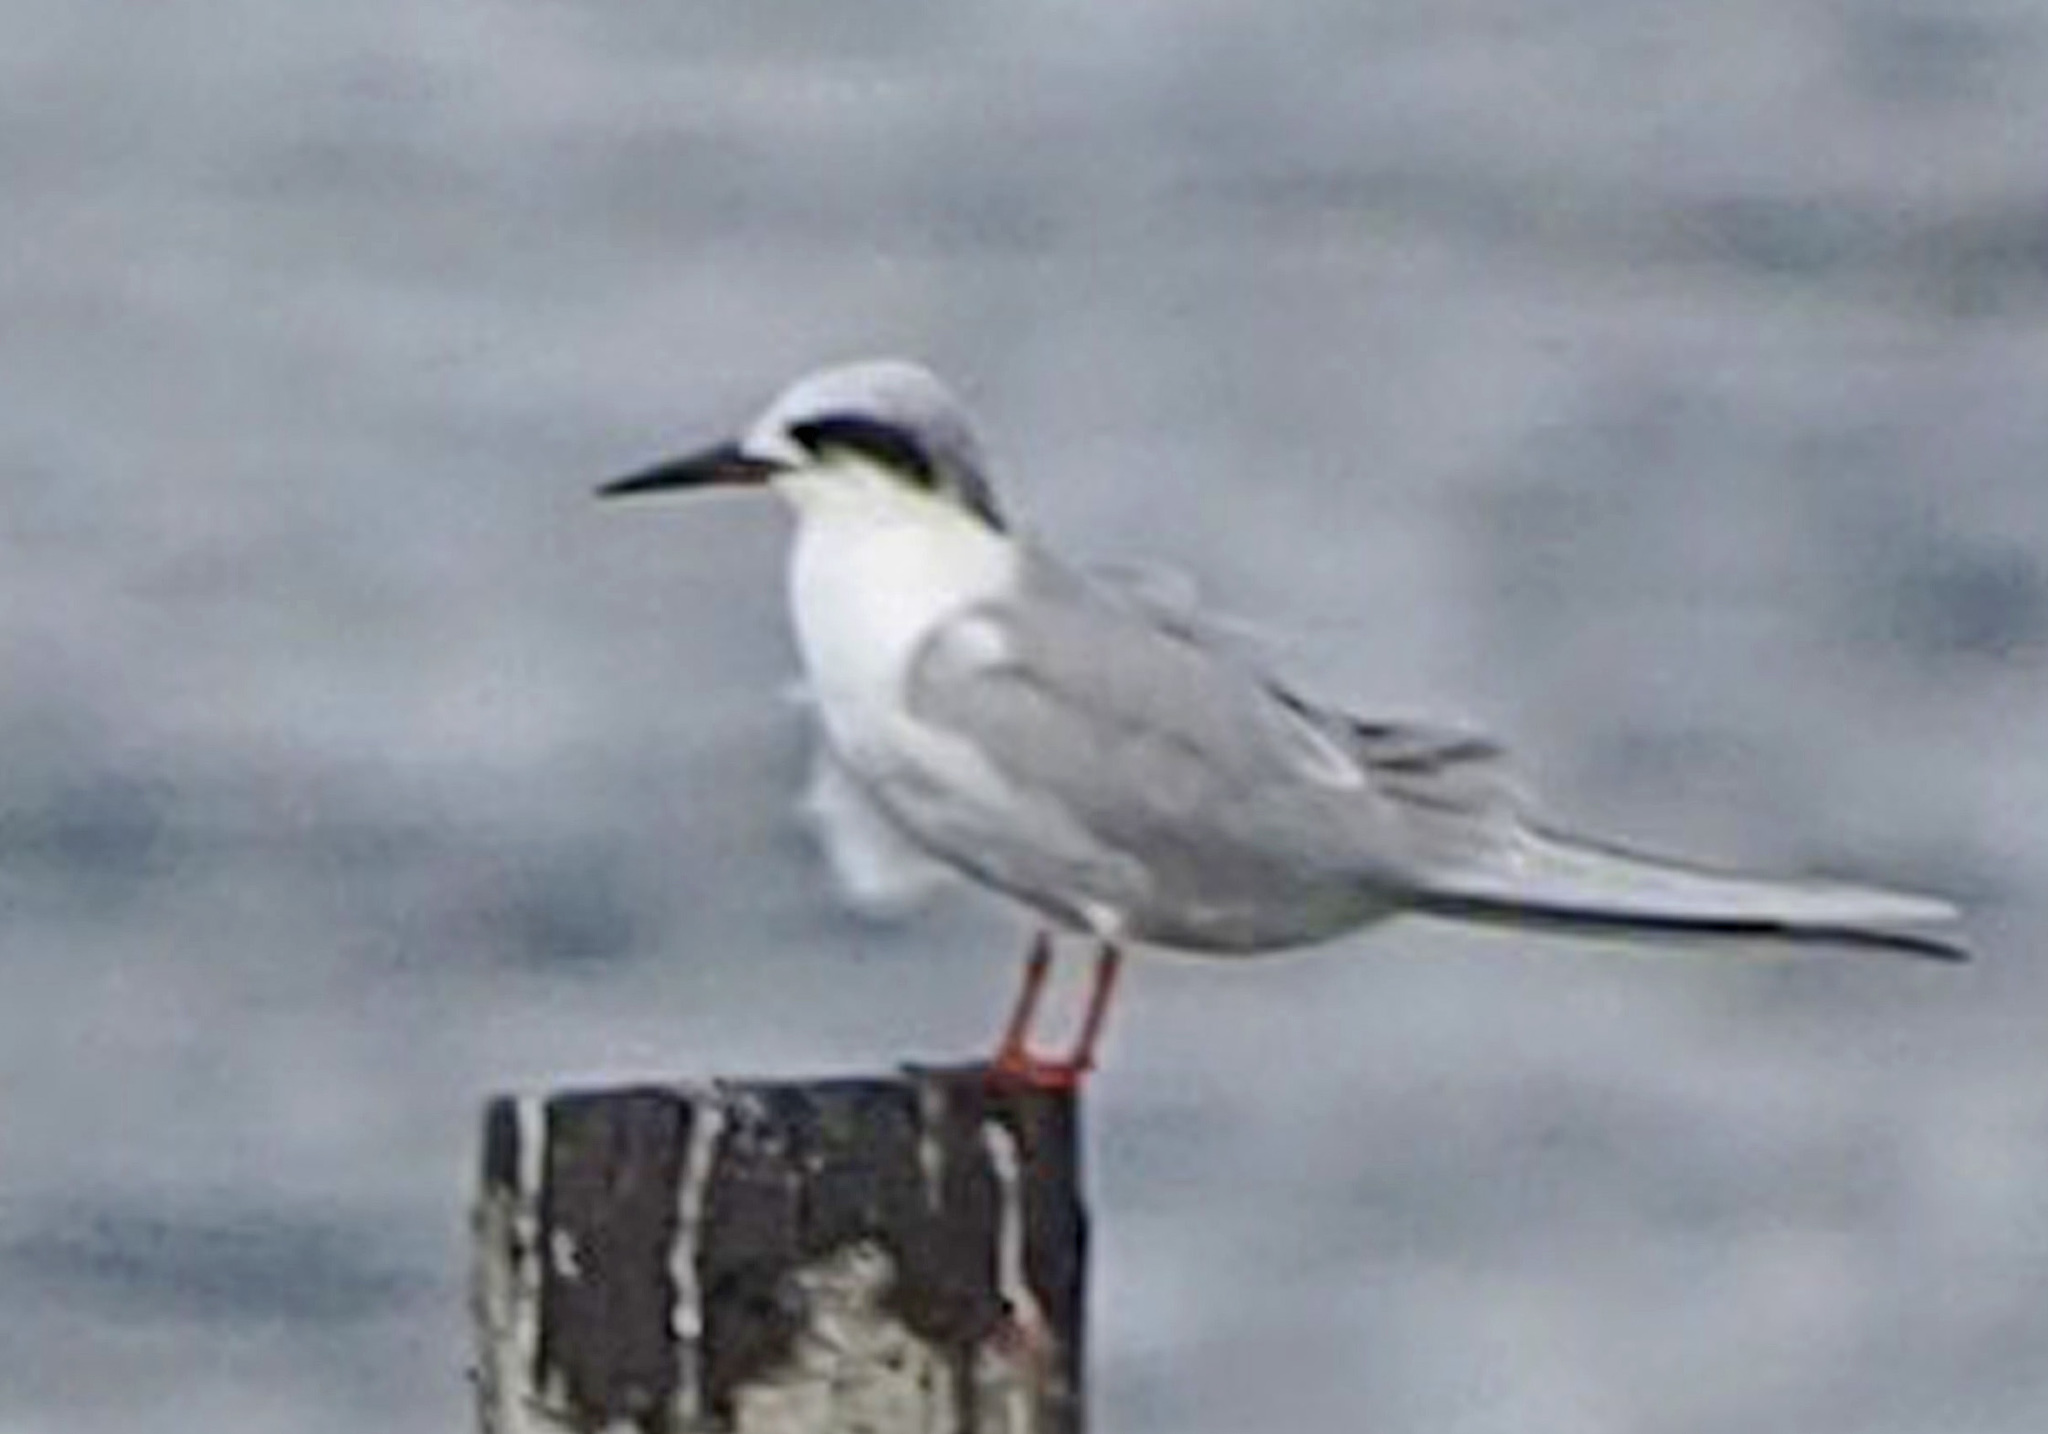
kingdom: Animalia
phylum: Chordata
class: Aves
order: Charadriiformes
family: Laridae
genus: Sterna
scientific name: Sterna forsteri
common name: Forster's tern
